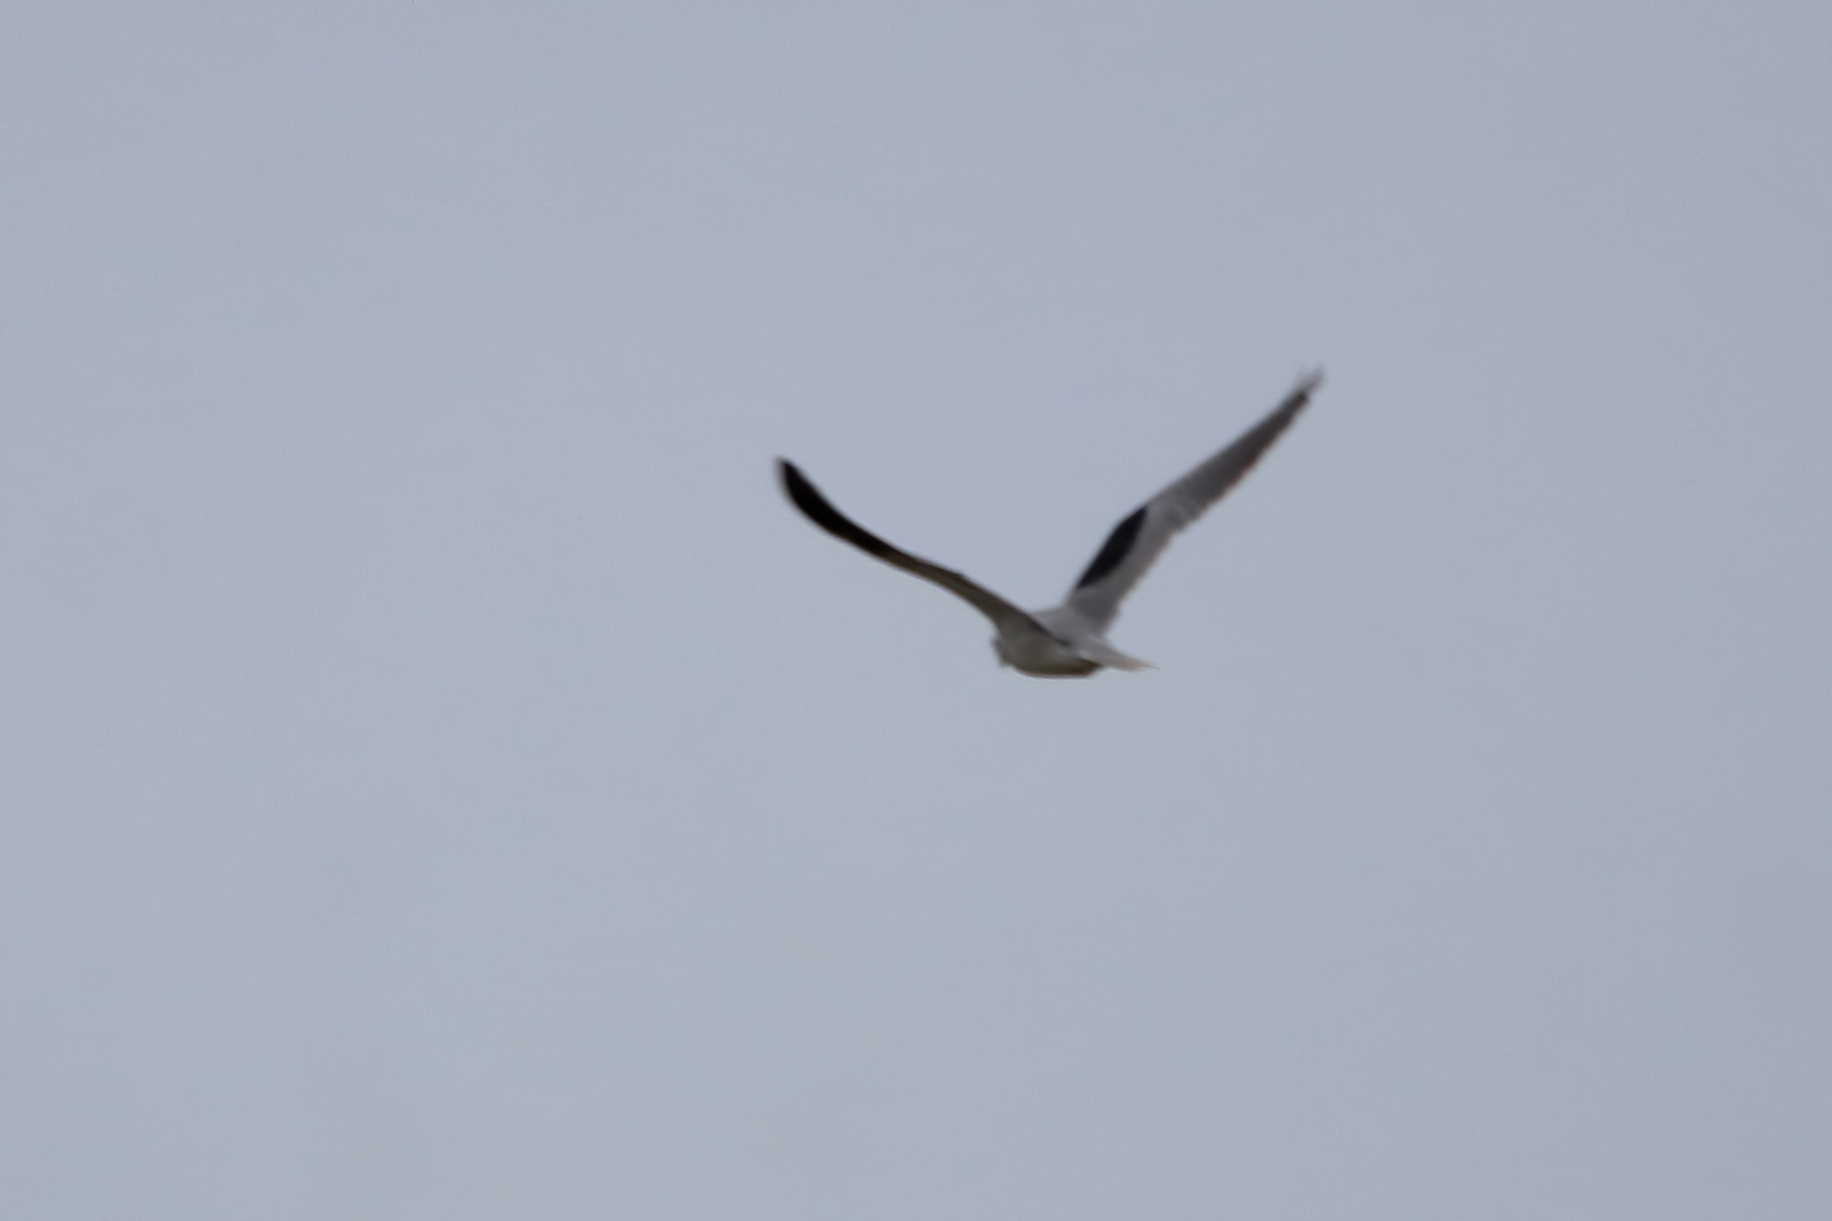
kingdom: Animalia
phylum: Chordata
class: Aves
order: Accipitriformes
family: Accipitridae
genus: Elanus
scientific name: Elanus leucurus
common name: White-tailed kite
